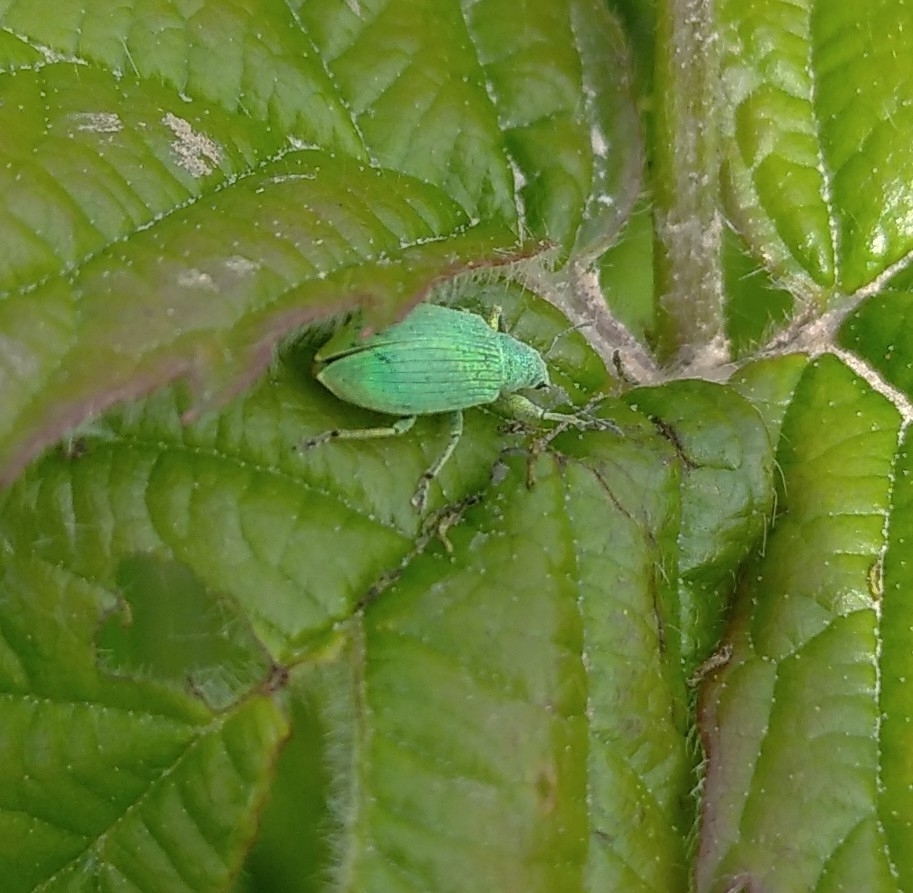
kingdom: Animalia
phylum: Arthropoda
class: Insecta
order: Coleoptera
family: Curculionidae
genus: Polydrusus
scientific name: Polydrusus planifrons
